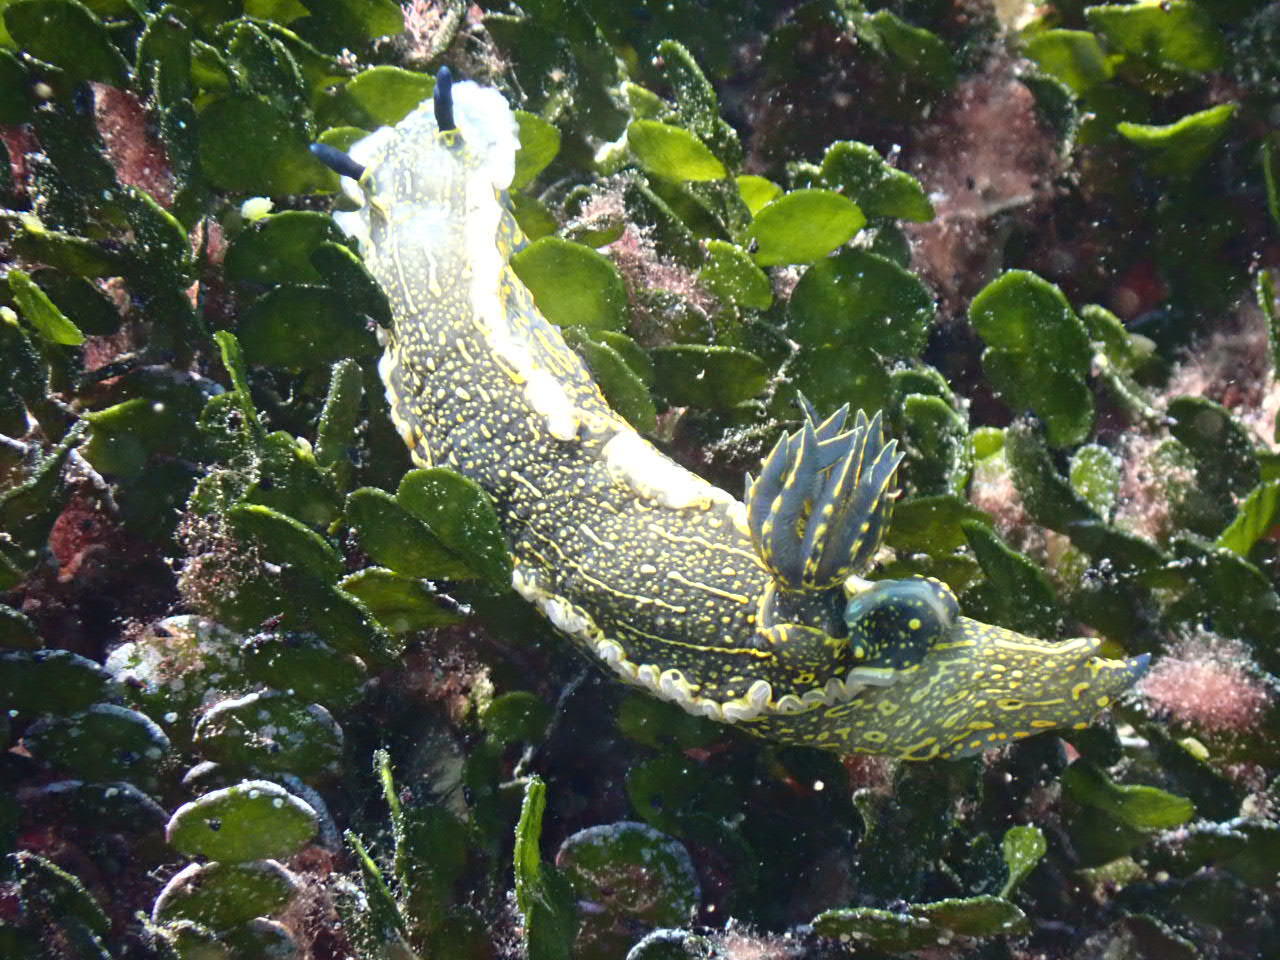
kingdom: Animalia
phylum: Mollusca
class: Gastropoda
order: Nudibranchia
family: Chromodorididae
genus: Felimare
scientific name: Felimare picta
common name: Giant doris
